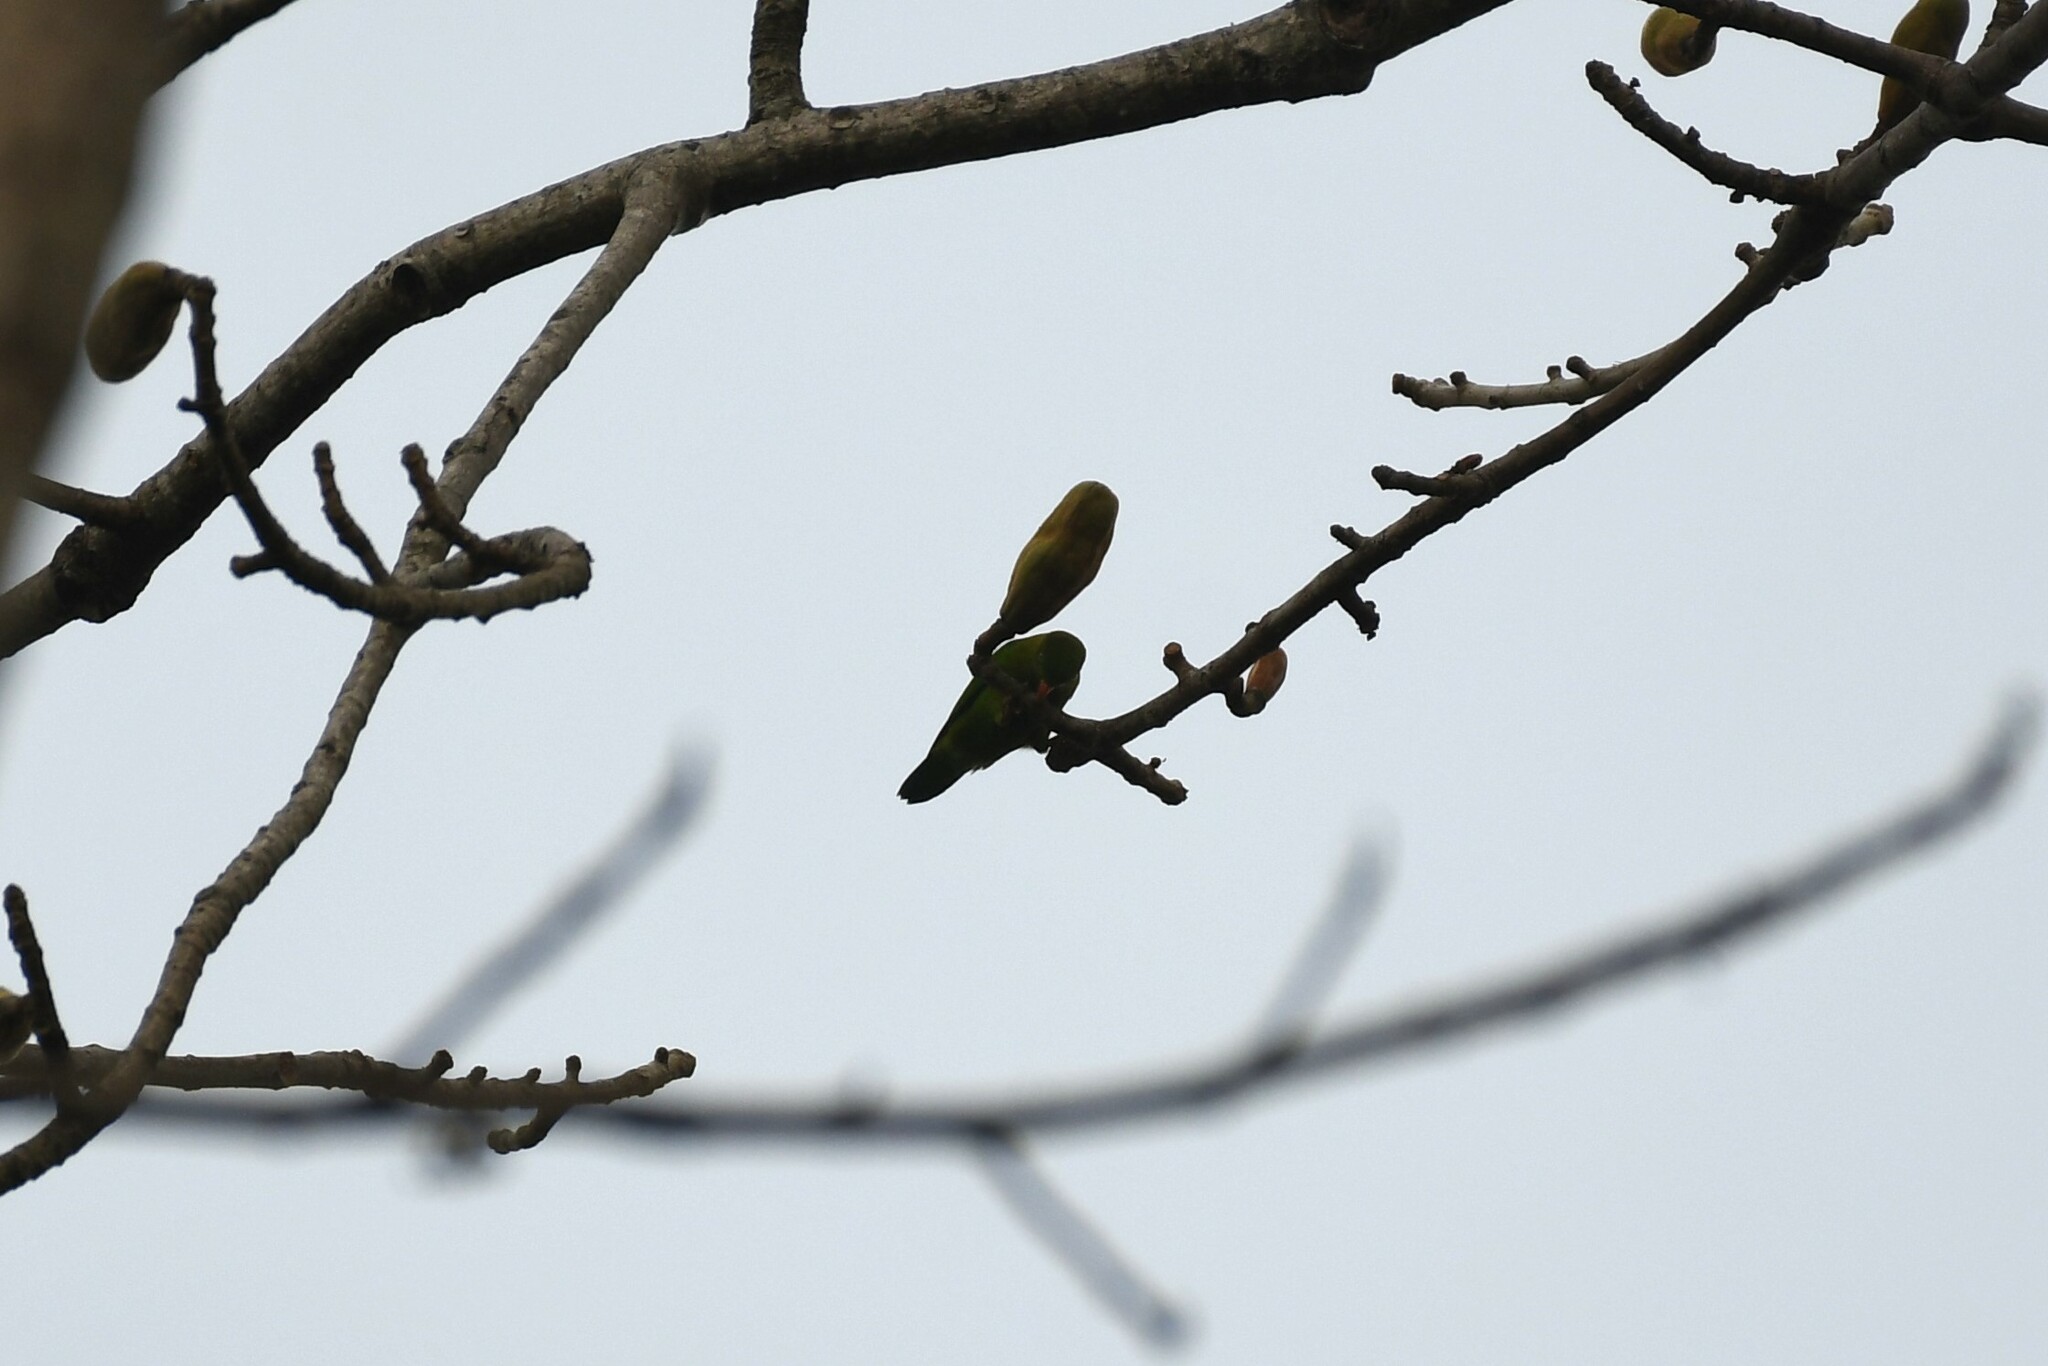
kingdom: Animalia
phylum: Chordata
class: Aves
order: Psittaciformes
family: Psittacidae
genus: Loriculus
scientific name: Loriculus vernalis
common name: Vernal hanging parrot
